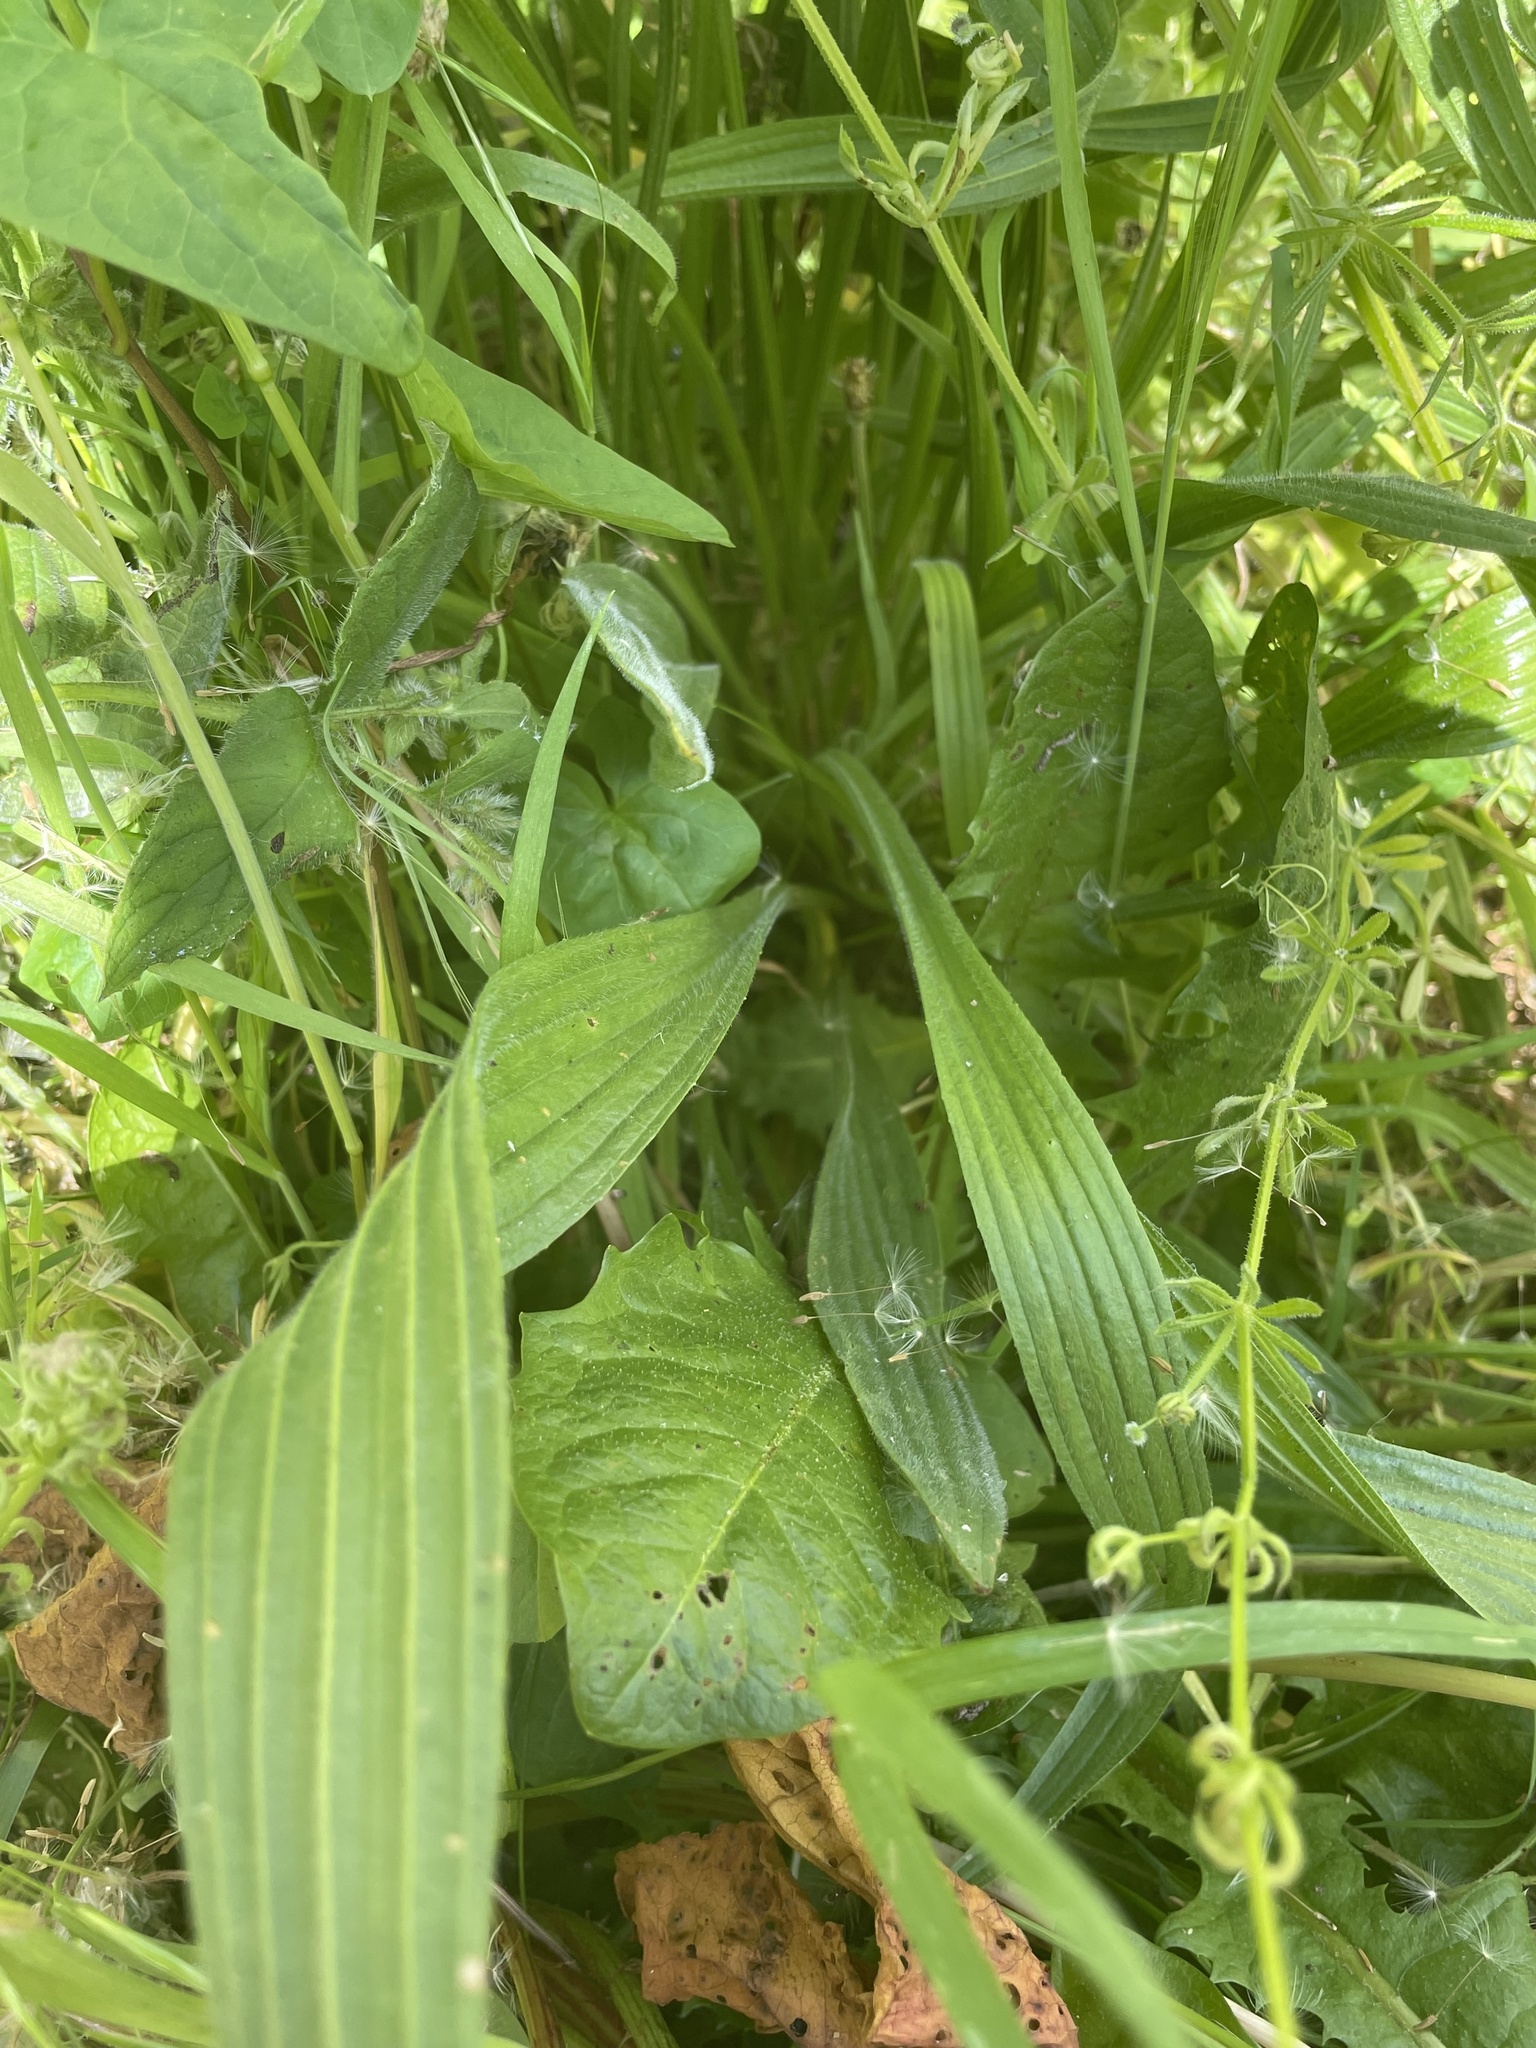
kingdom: Plantae
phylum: Tracheophyta
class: Magnoliopsida
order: Lamiales
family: Plantaginaceae
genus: Plantago
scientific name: Plantago lanceolata
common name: Ribwort plantain
